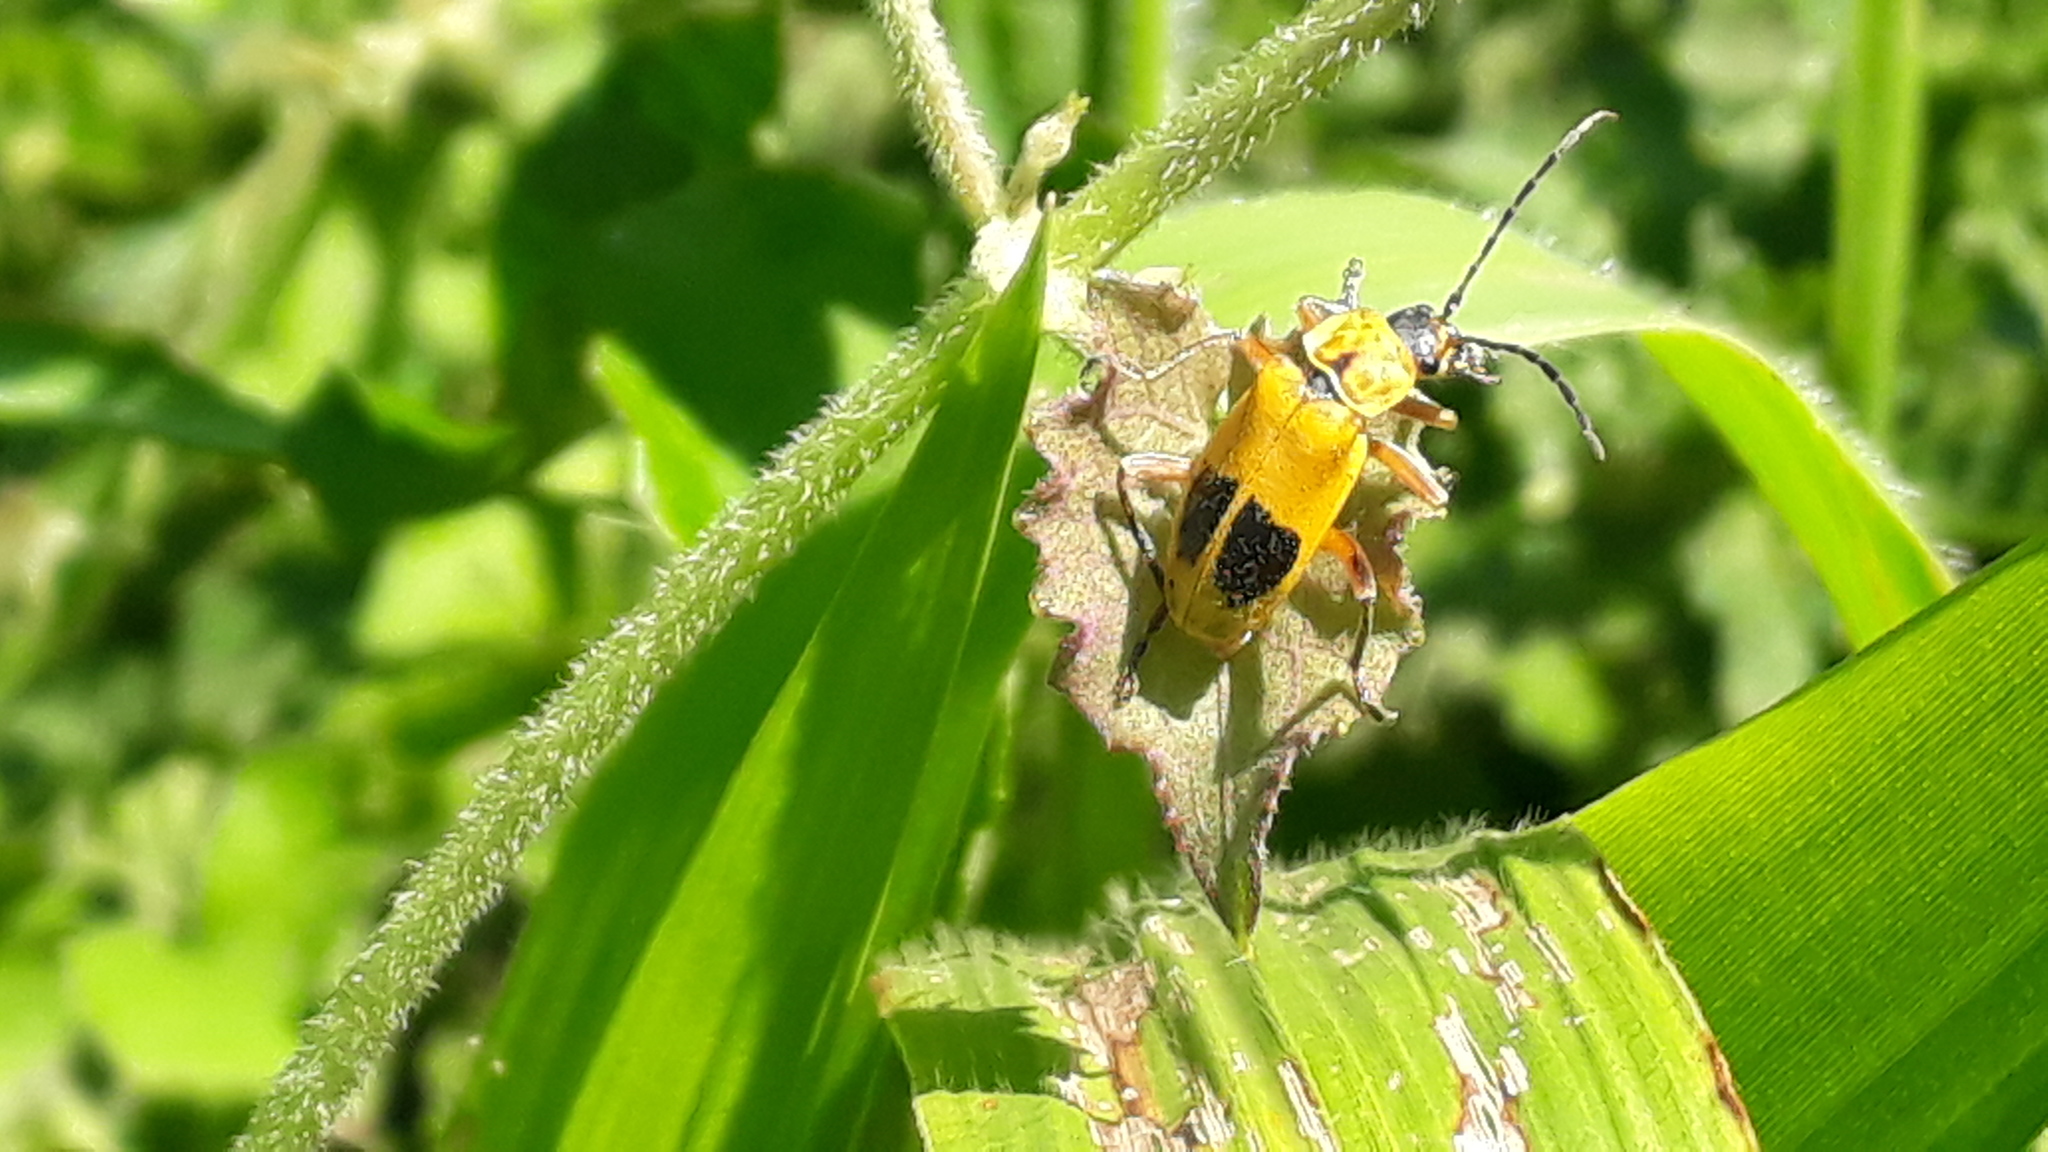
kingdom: Animalia
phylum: Arthropoda
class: Insecta
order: Coleoptera
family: Cantharidae
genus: Chauliognathus
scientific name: Chauliognathus
